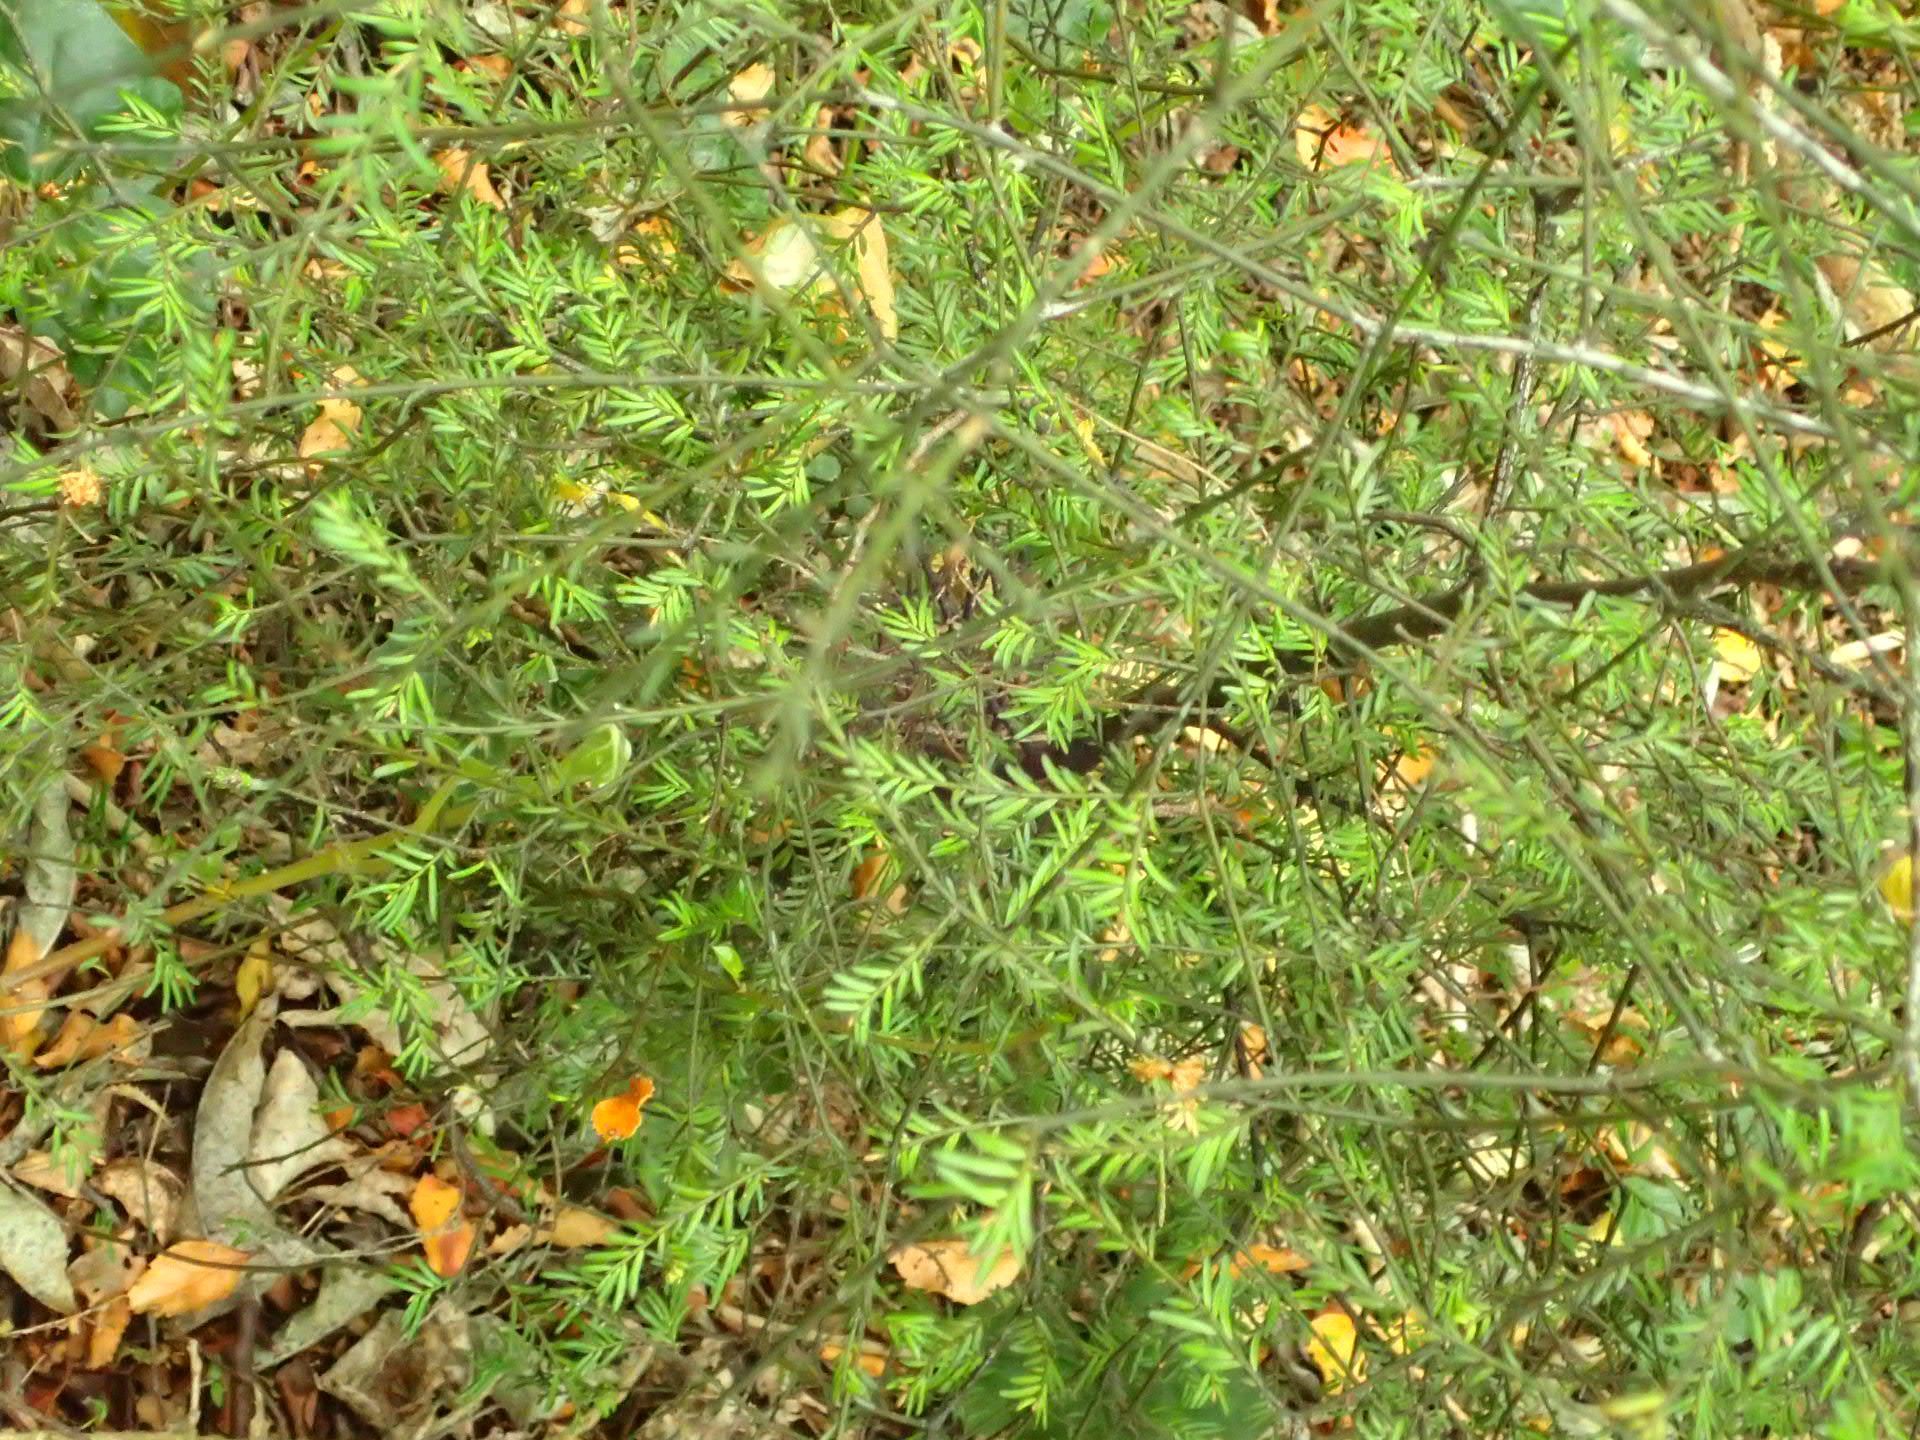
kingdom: Plantae
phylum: Tracheophyta
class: Pinopsida
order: Pinales
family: Podocarpaceae
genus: Prumnopitys
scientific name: Prumnopitys taxifolia
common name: Matai
